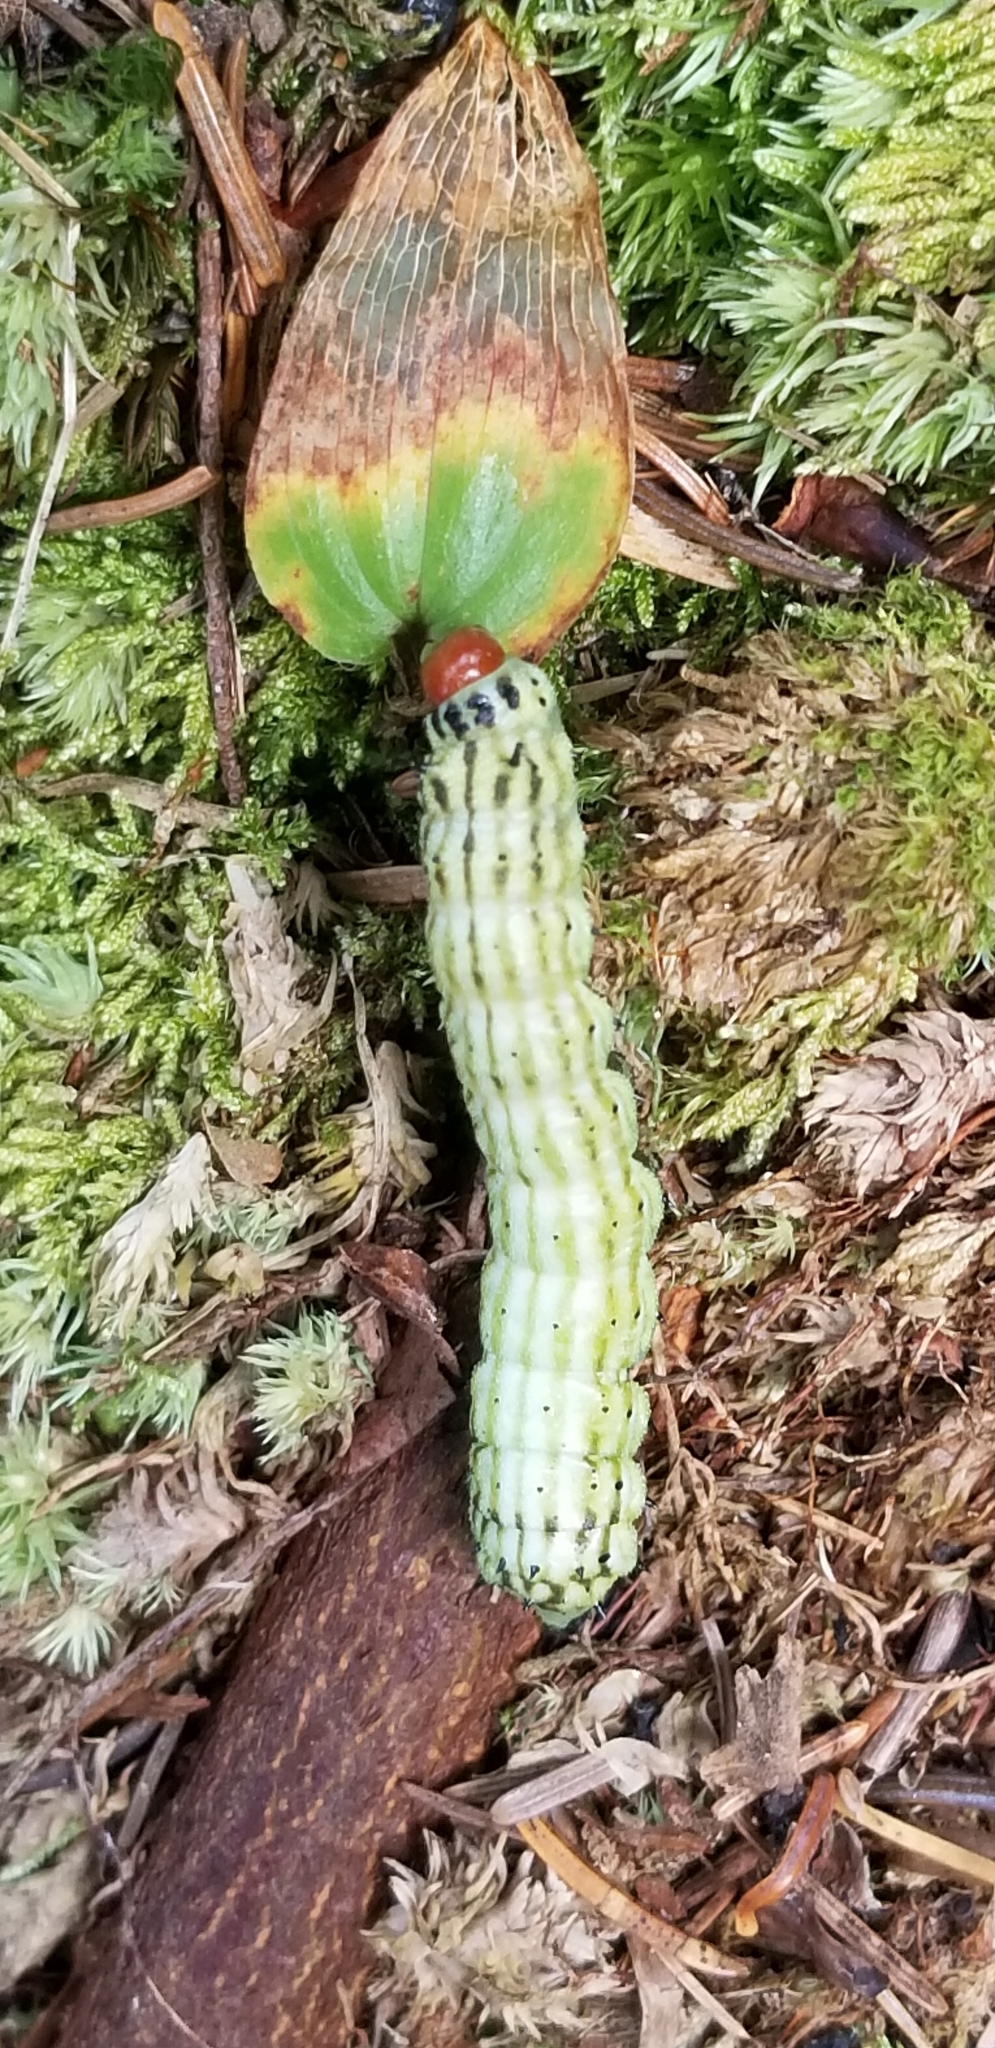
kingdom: Animalia
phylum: Arthropoda
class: Insecta
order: Lepidoptera
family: Saturniidae
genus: Dryocampa
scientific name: Dryocampa rubicunda
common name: Rosy maple moth
